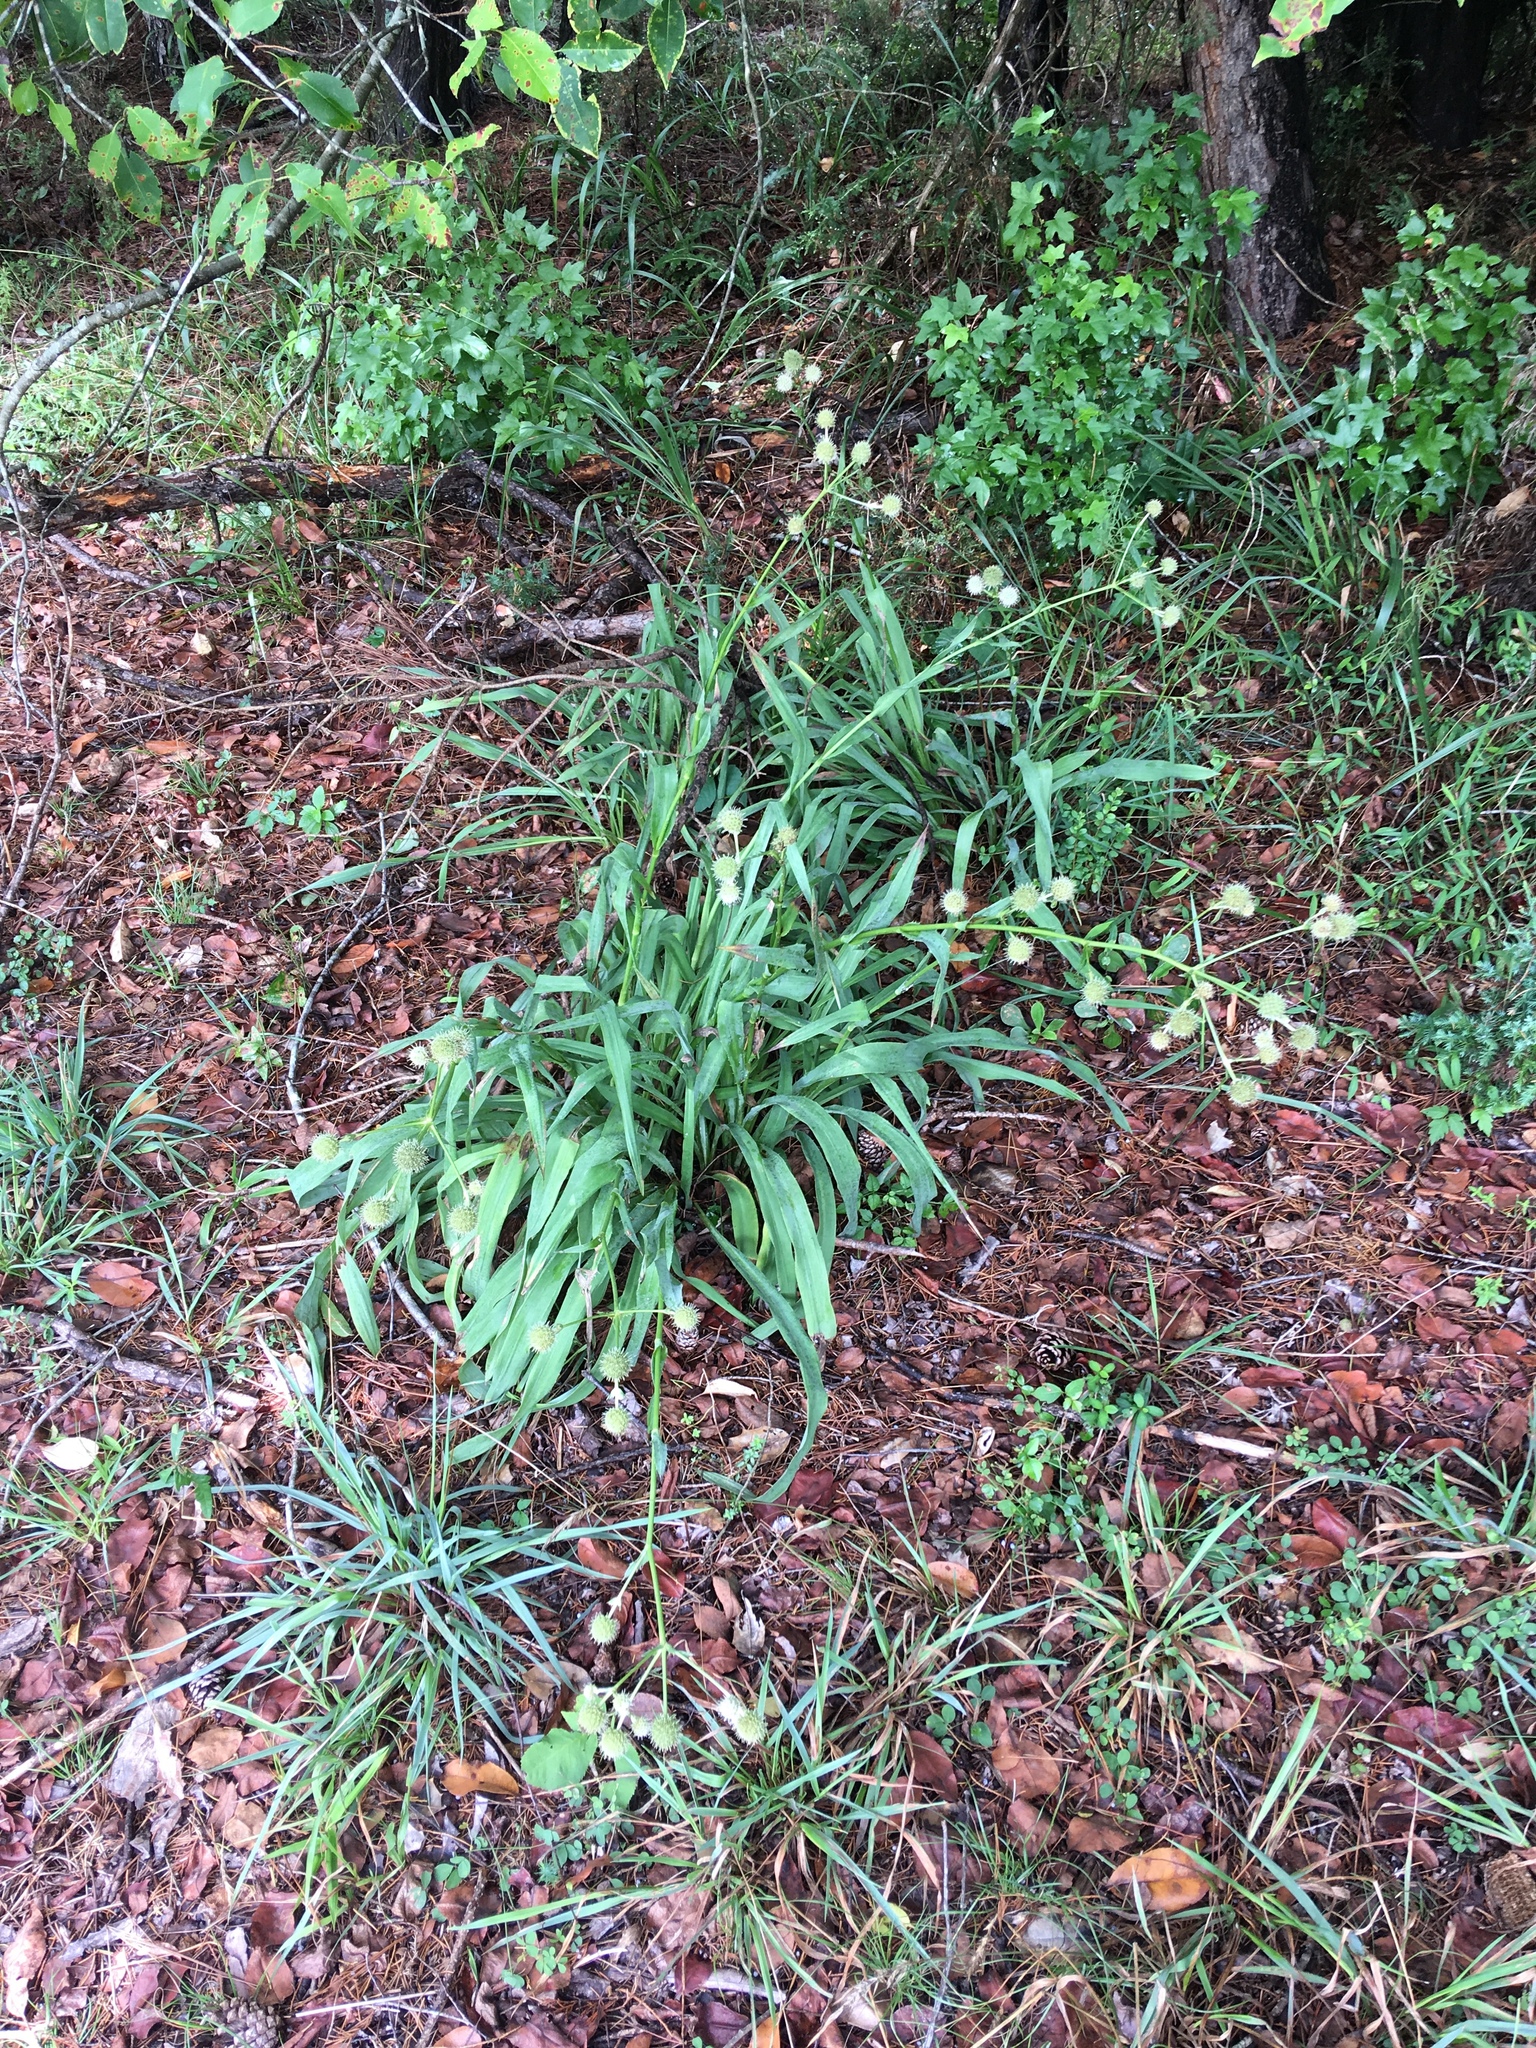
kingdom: Plantae
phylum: Tracheophyta
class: Magnoliopsida
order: Apiales
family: Apiaceae
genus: Eryngium
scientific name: Eryngium yuccifolium
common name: Button eryngo
